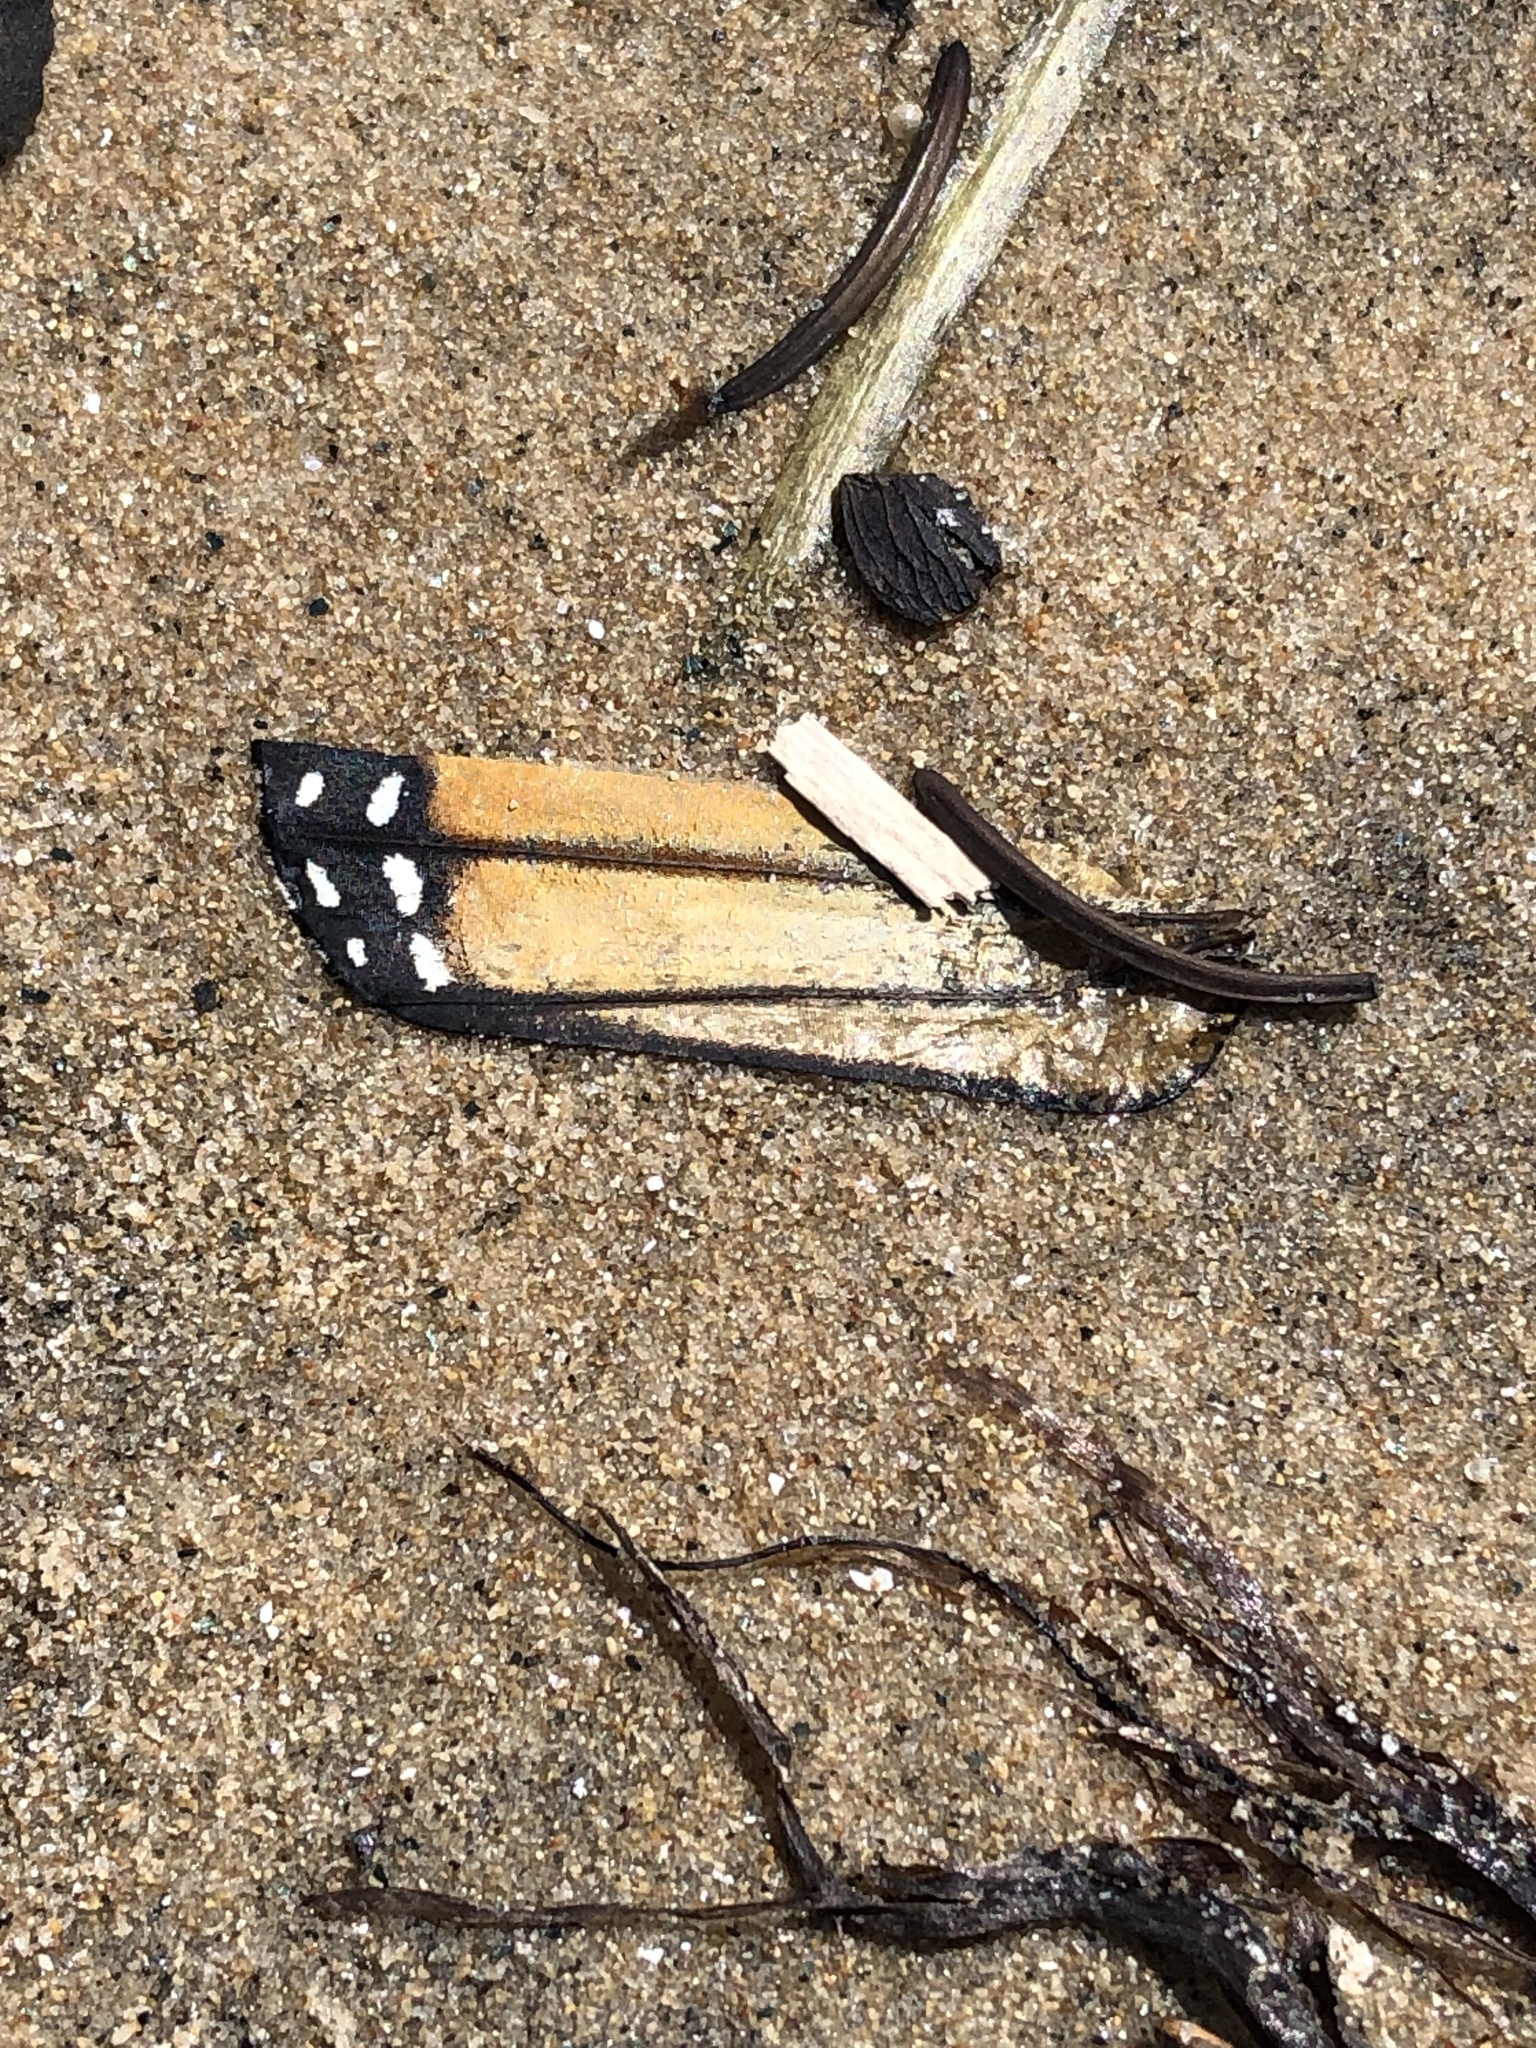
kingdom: Animalia
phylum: Arthropoda
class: Insecta
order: Lepidoptera
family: Nymphalidae
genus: Danaus
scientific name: Danaus plexippus
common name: Monarch
